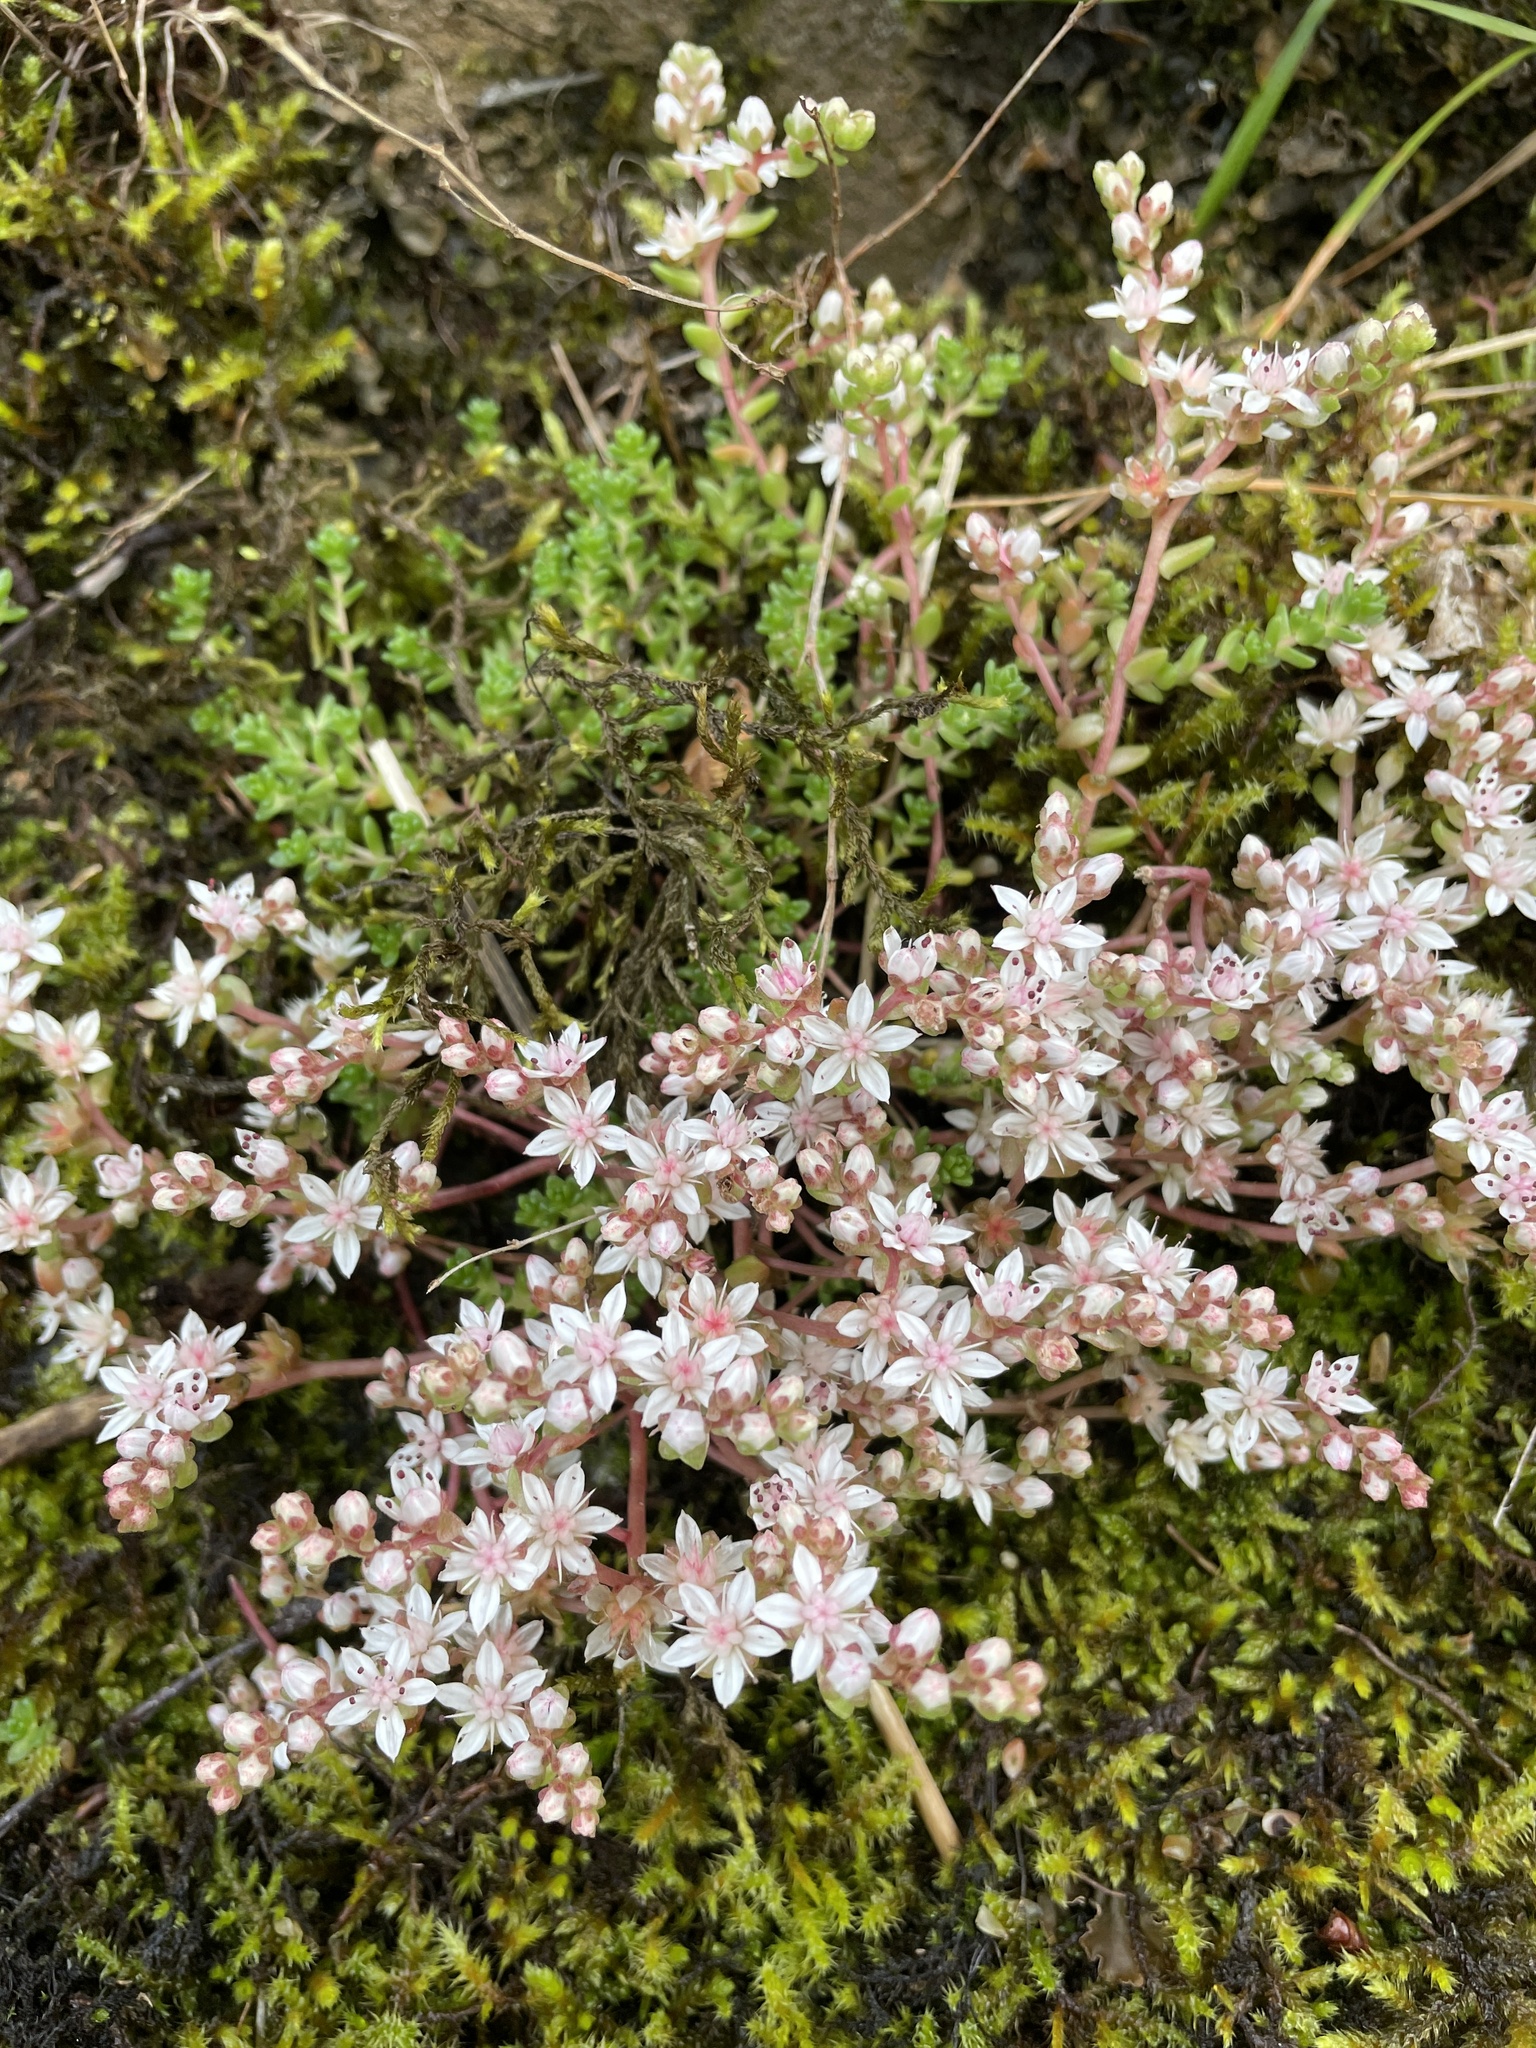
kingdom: Plantae
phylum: Tracheophyta
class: Magnoliopsida
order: Saxifragales
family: Crassulaceae
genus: Sedum
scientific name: Sedum anglicum
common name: English stonecrop
